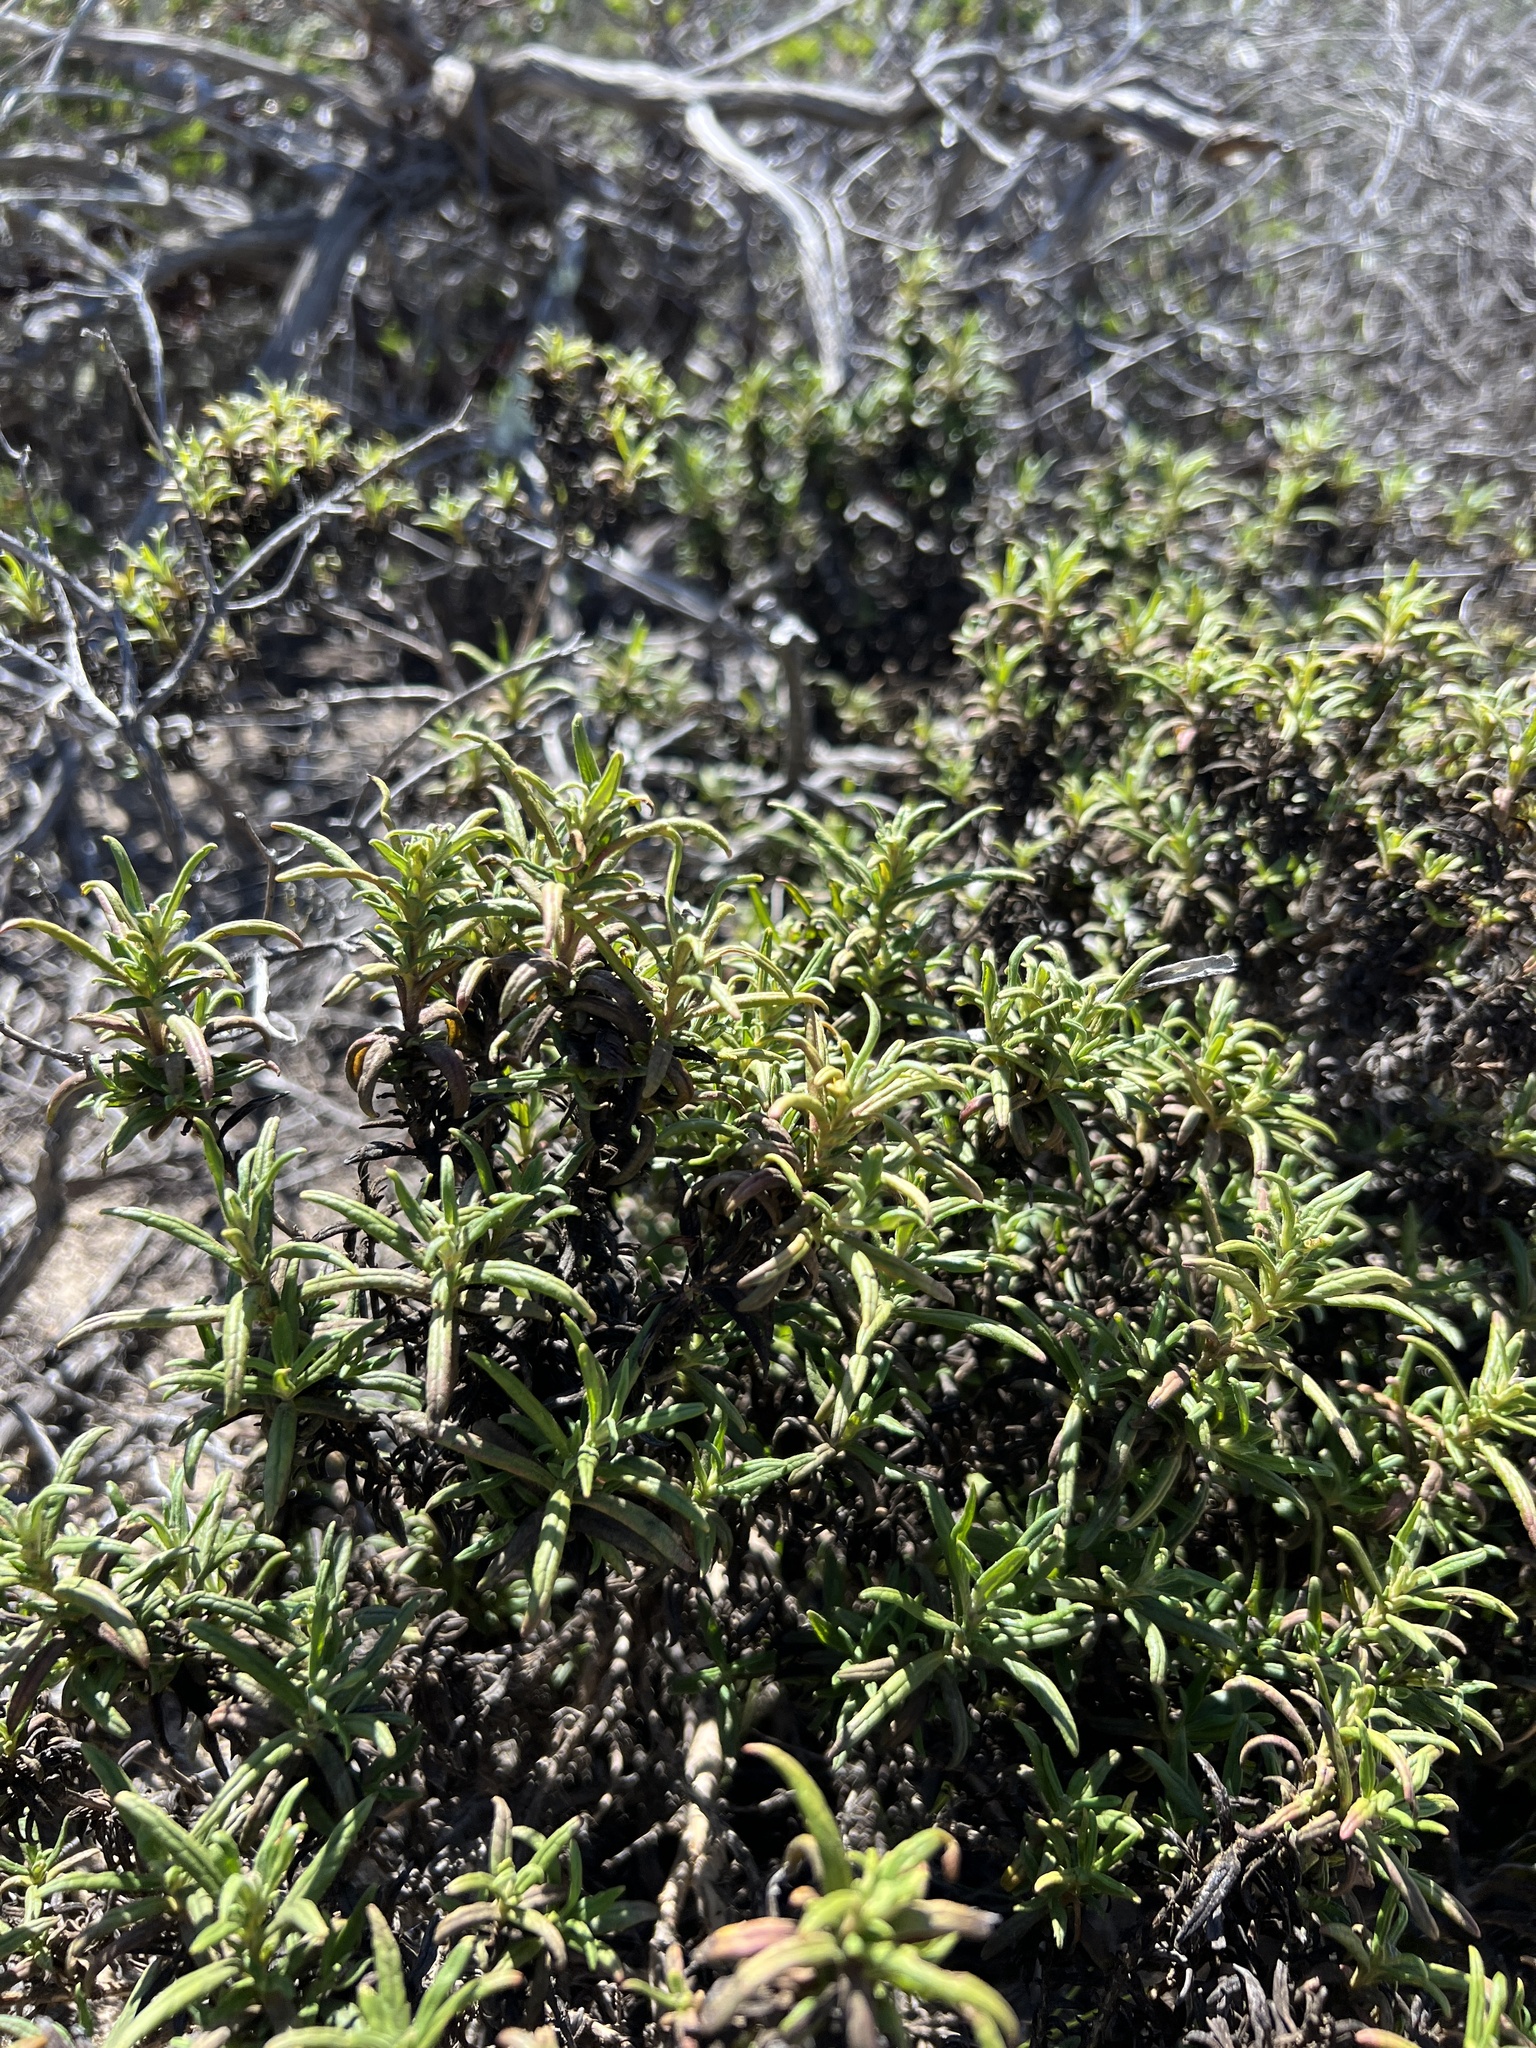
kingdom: Plantae
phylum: Tracheophyta
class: Magnoliopsida
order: Lamiales
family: Phrymaceae
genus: Diplacus
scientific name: Diplacus lompocensis
